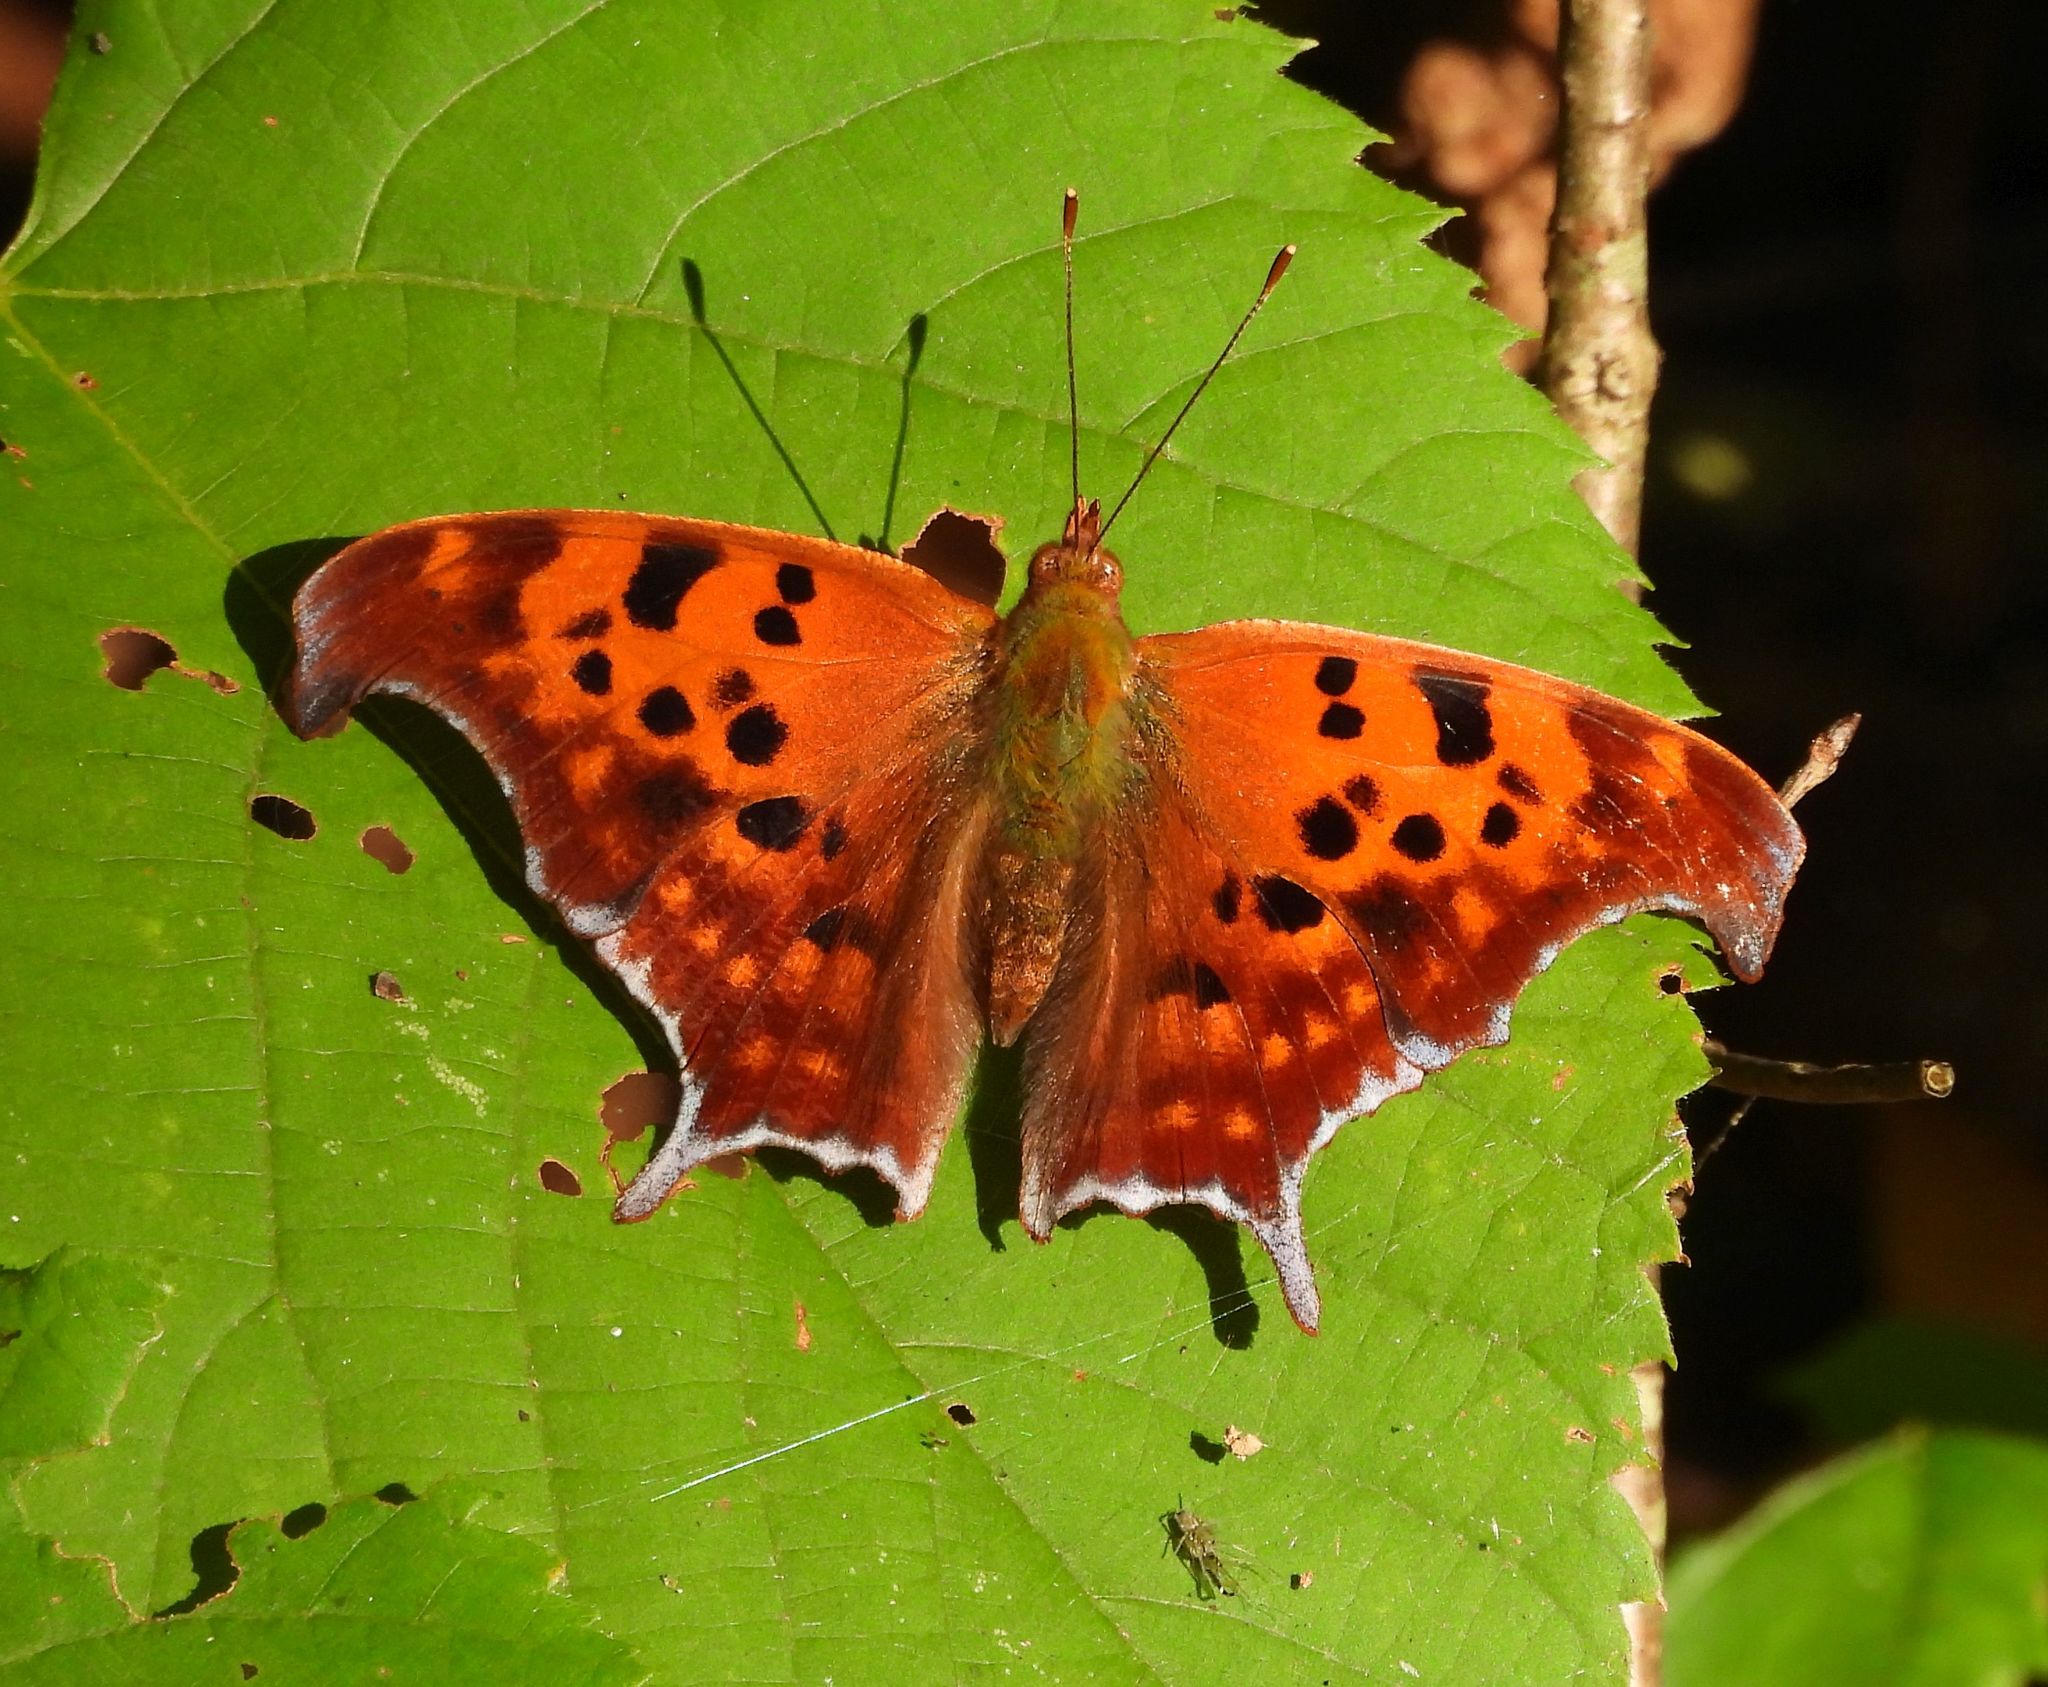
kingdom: Animalia
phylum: Arthropoda
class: Insecta
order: Lepidoptera
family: Nymphalidae
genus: Polygonia
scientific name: Polygonia interrogationis
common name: Question mark
